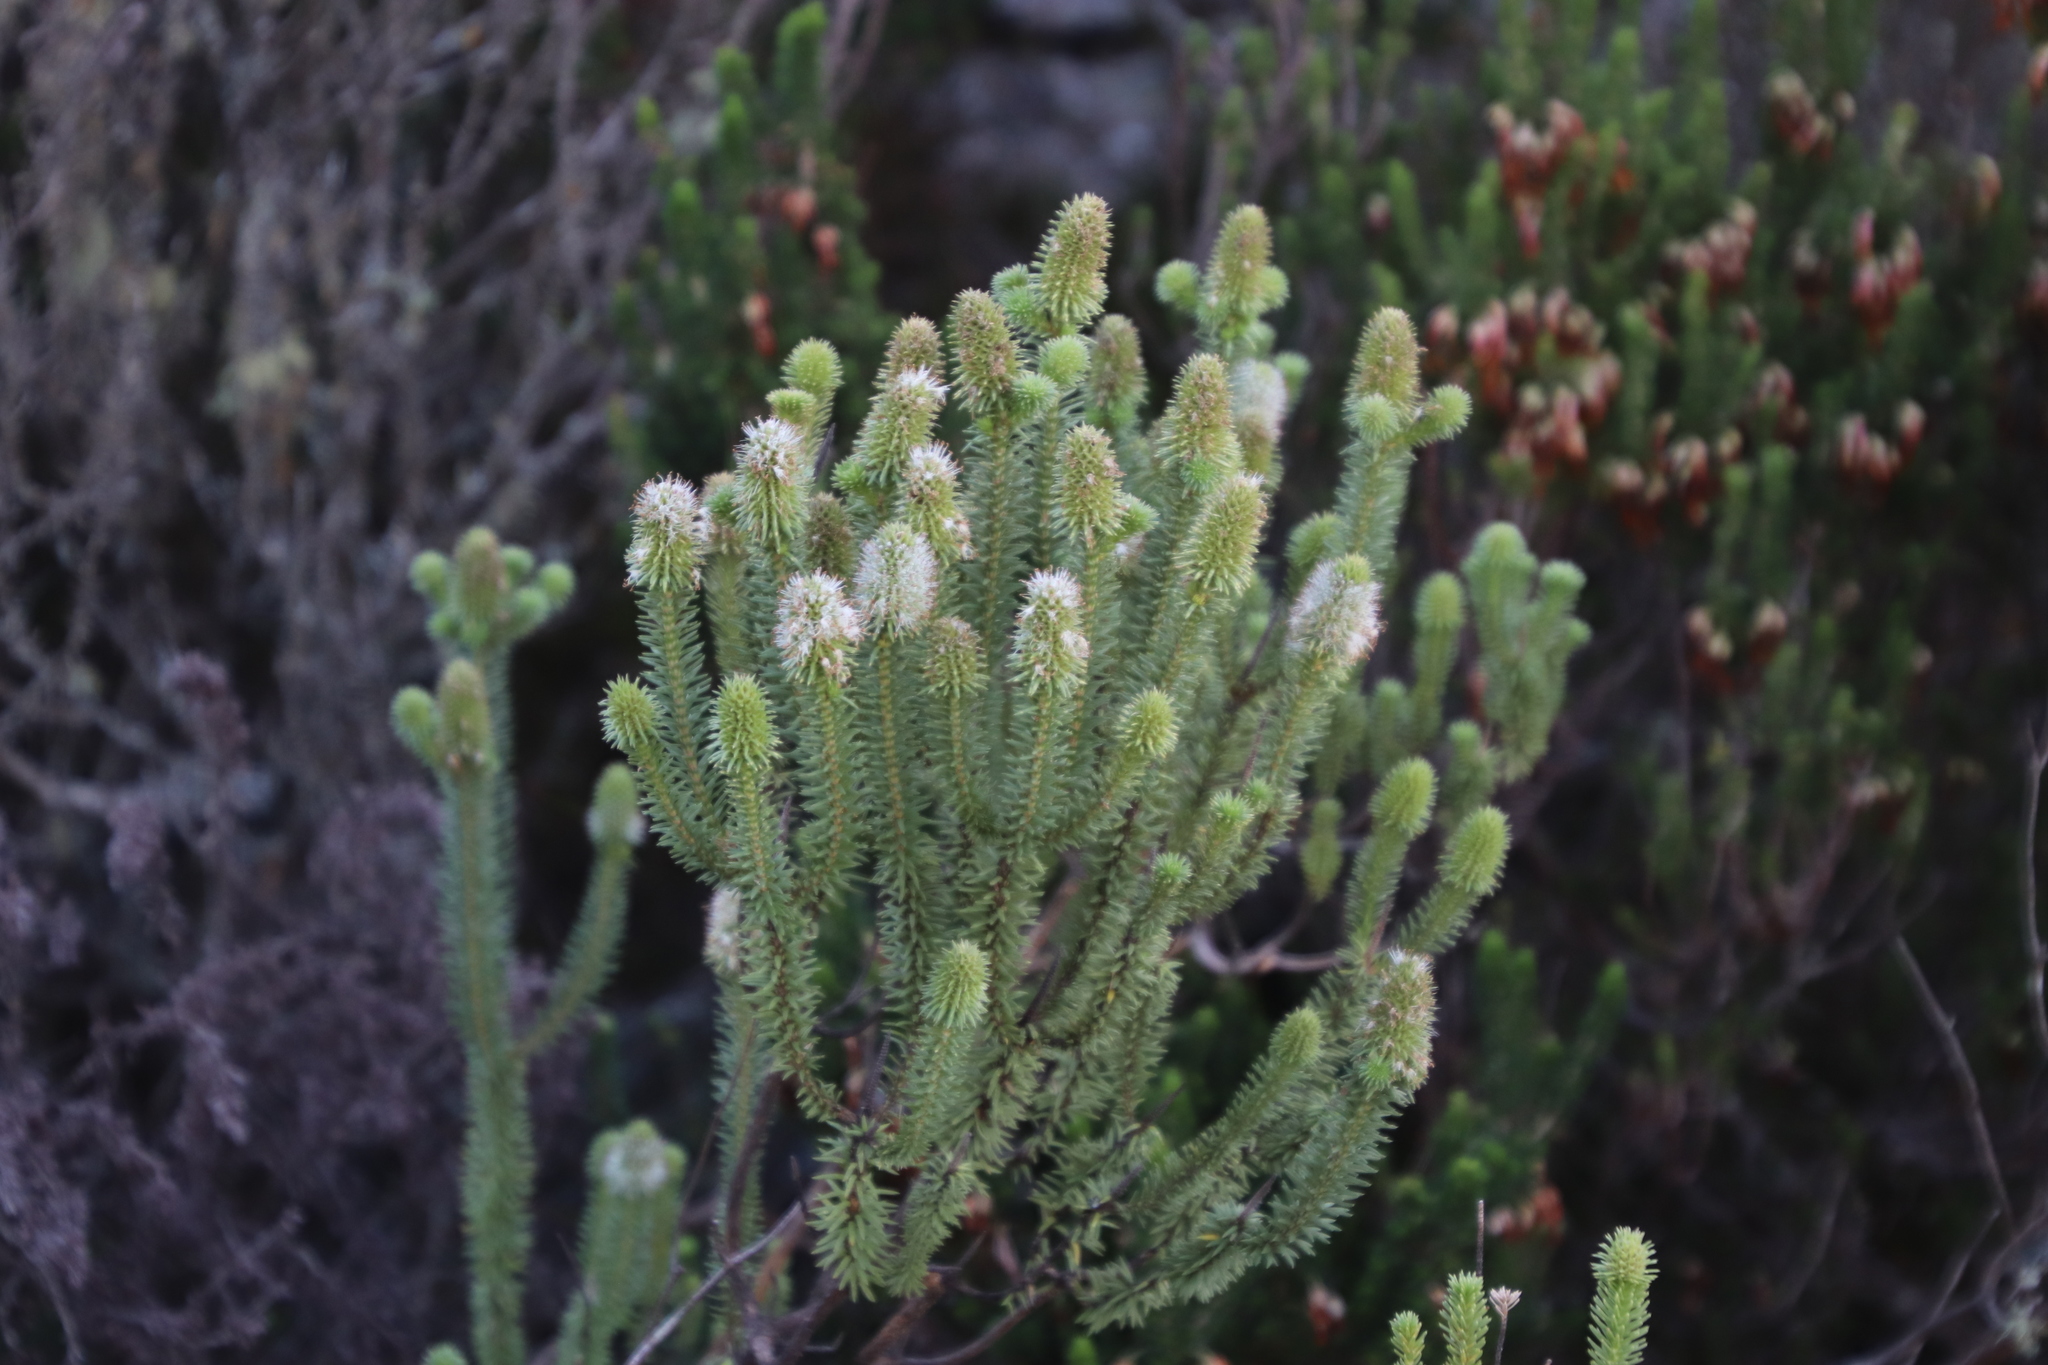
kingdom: Plantae
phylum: Tracheophyta
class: Magnoliopsida
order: Lamiales
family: Stilbaceae
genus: Stilbe
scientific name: Stilbe vestita
